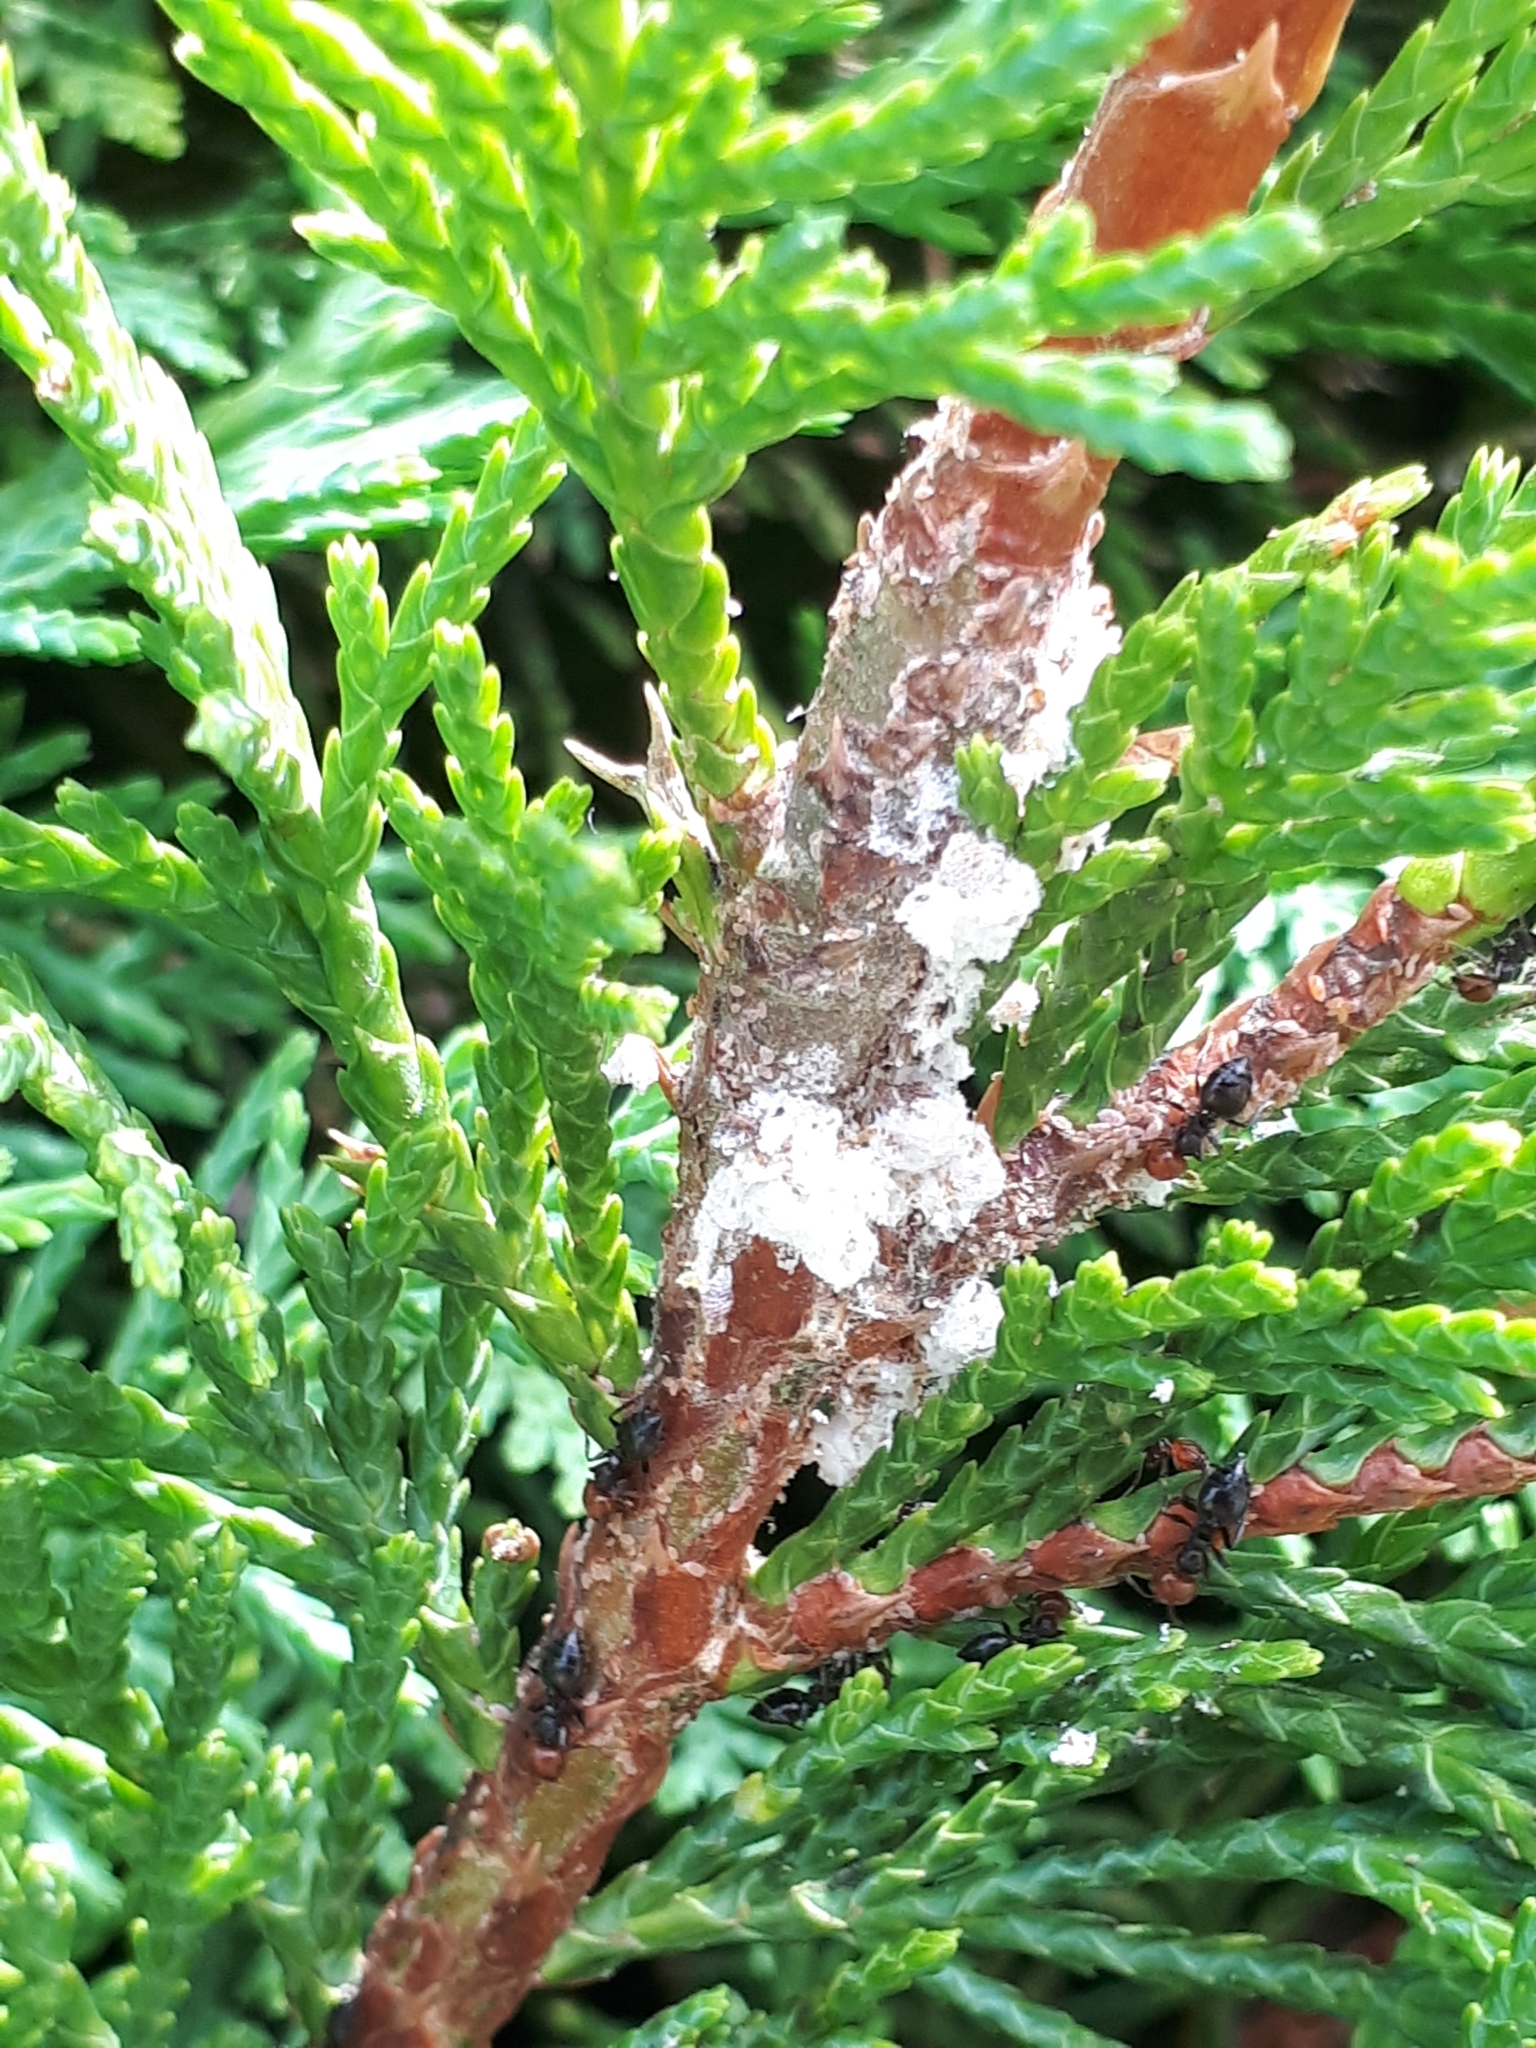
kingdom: Animalia
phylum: Arthropoda
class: Insecta
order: Hymenoptera
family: Formicidae
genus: Crematogaster
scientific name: Crematogaster scutellaris
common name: Fourmi du liège
